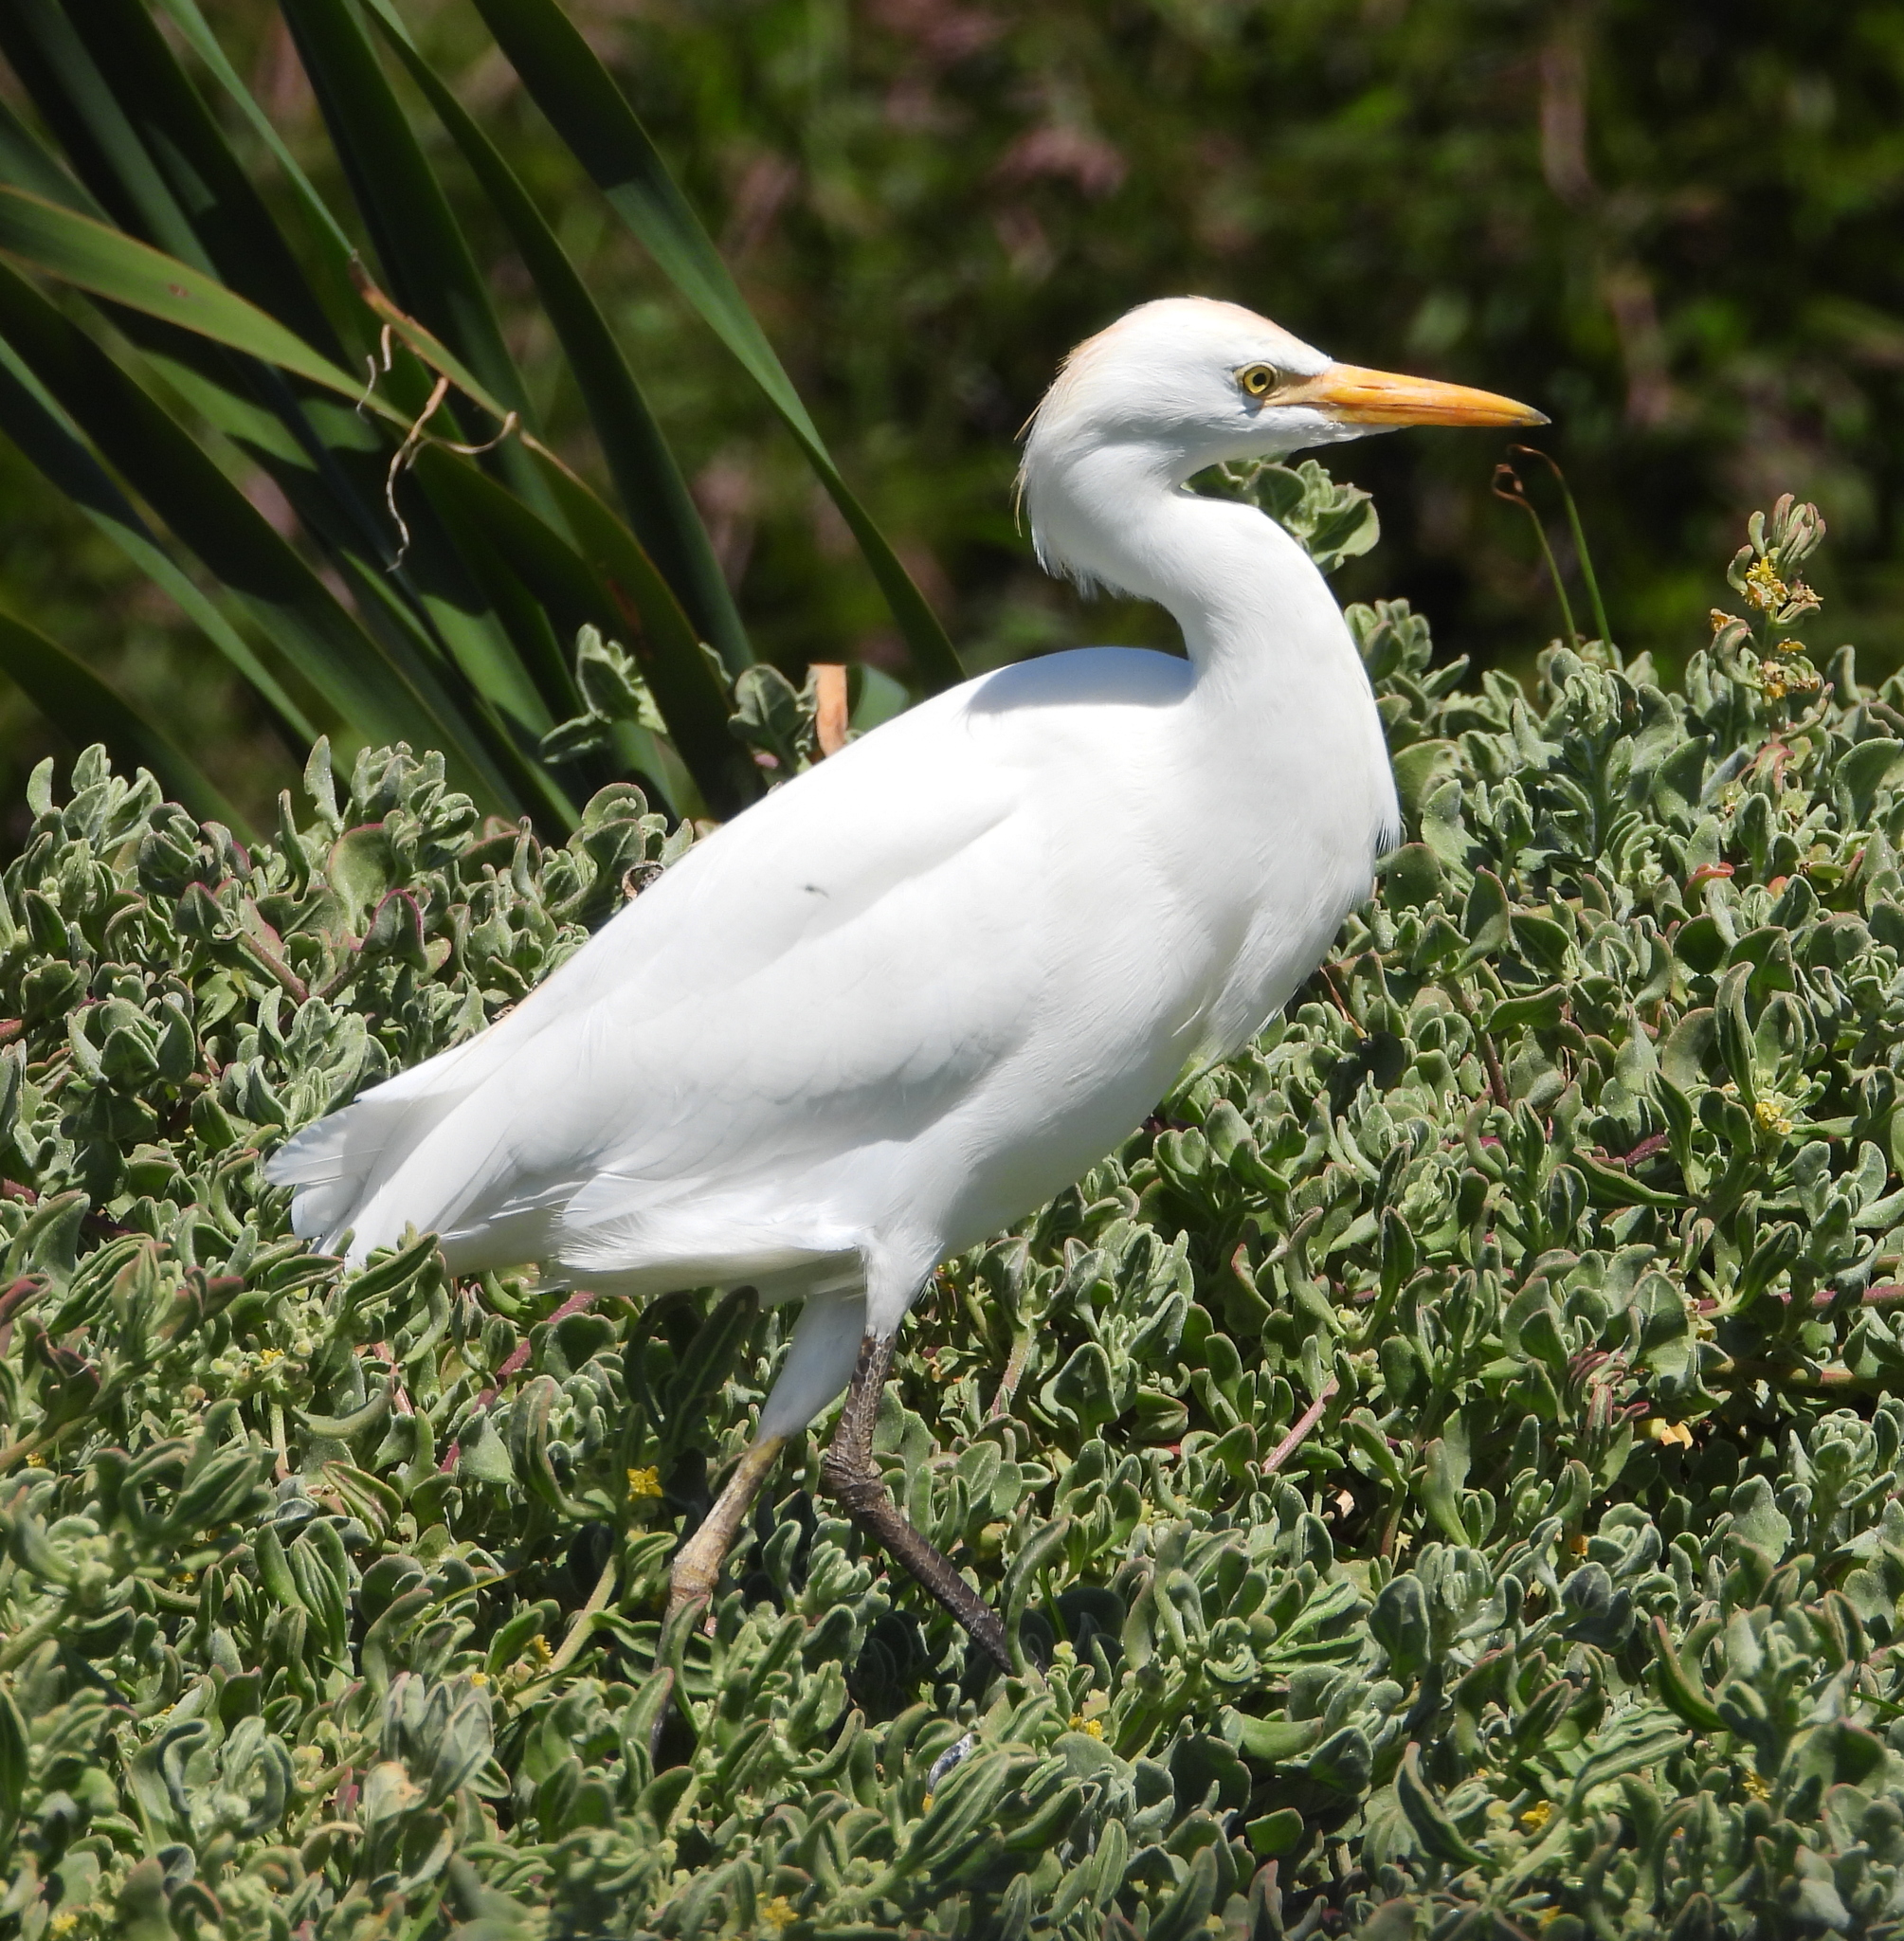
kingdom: Animalia
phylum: Chordata
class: Aves
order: Pelecaniformes
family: Ardeidae
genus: Bubulcus
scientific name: Bubulcus ibis
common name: Cattle egret
